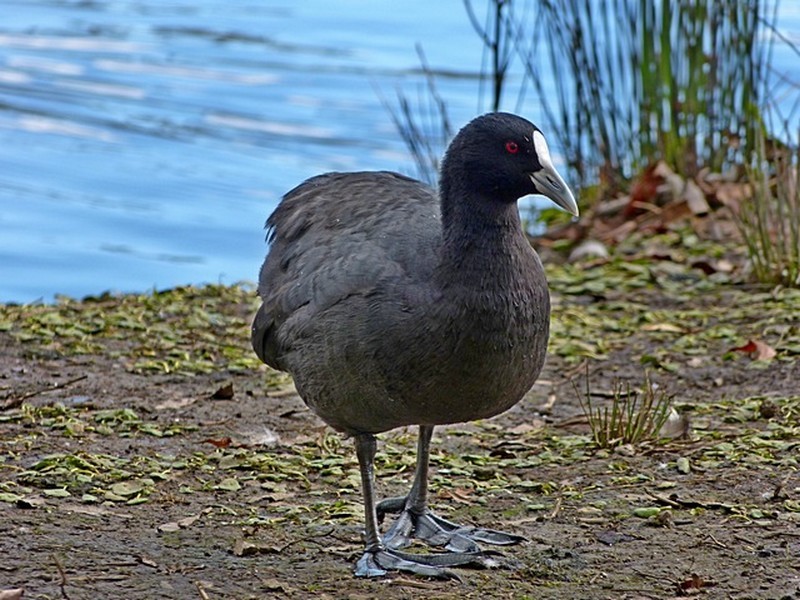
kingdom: Animalia
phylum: Chordata
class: Aves
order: Gruiformes
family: Rallidae
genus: Fulica
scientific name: Fulica atra
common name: Eurasian coot
